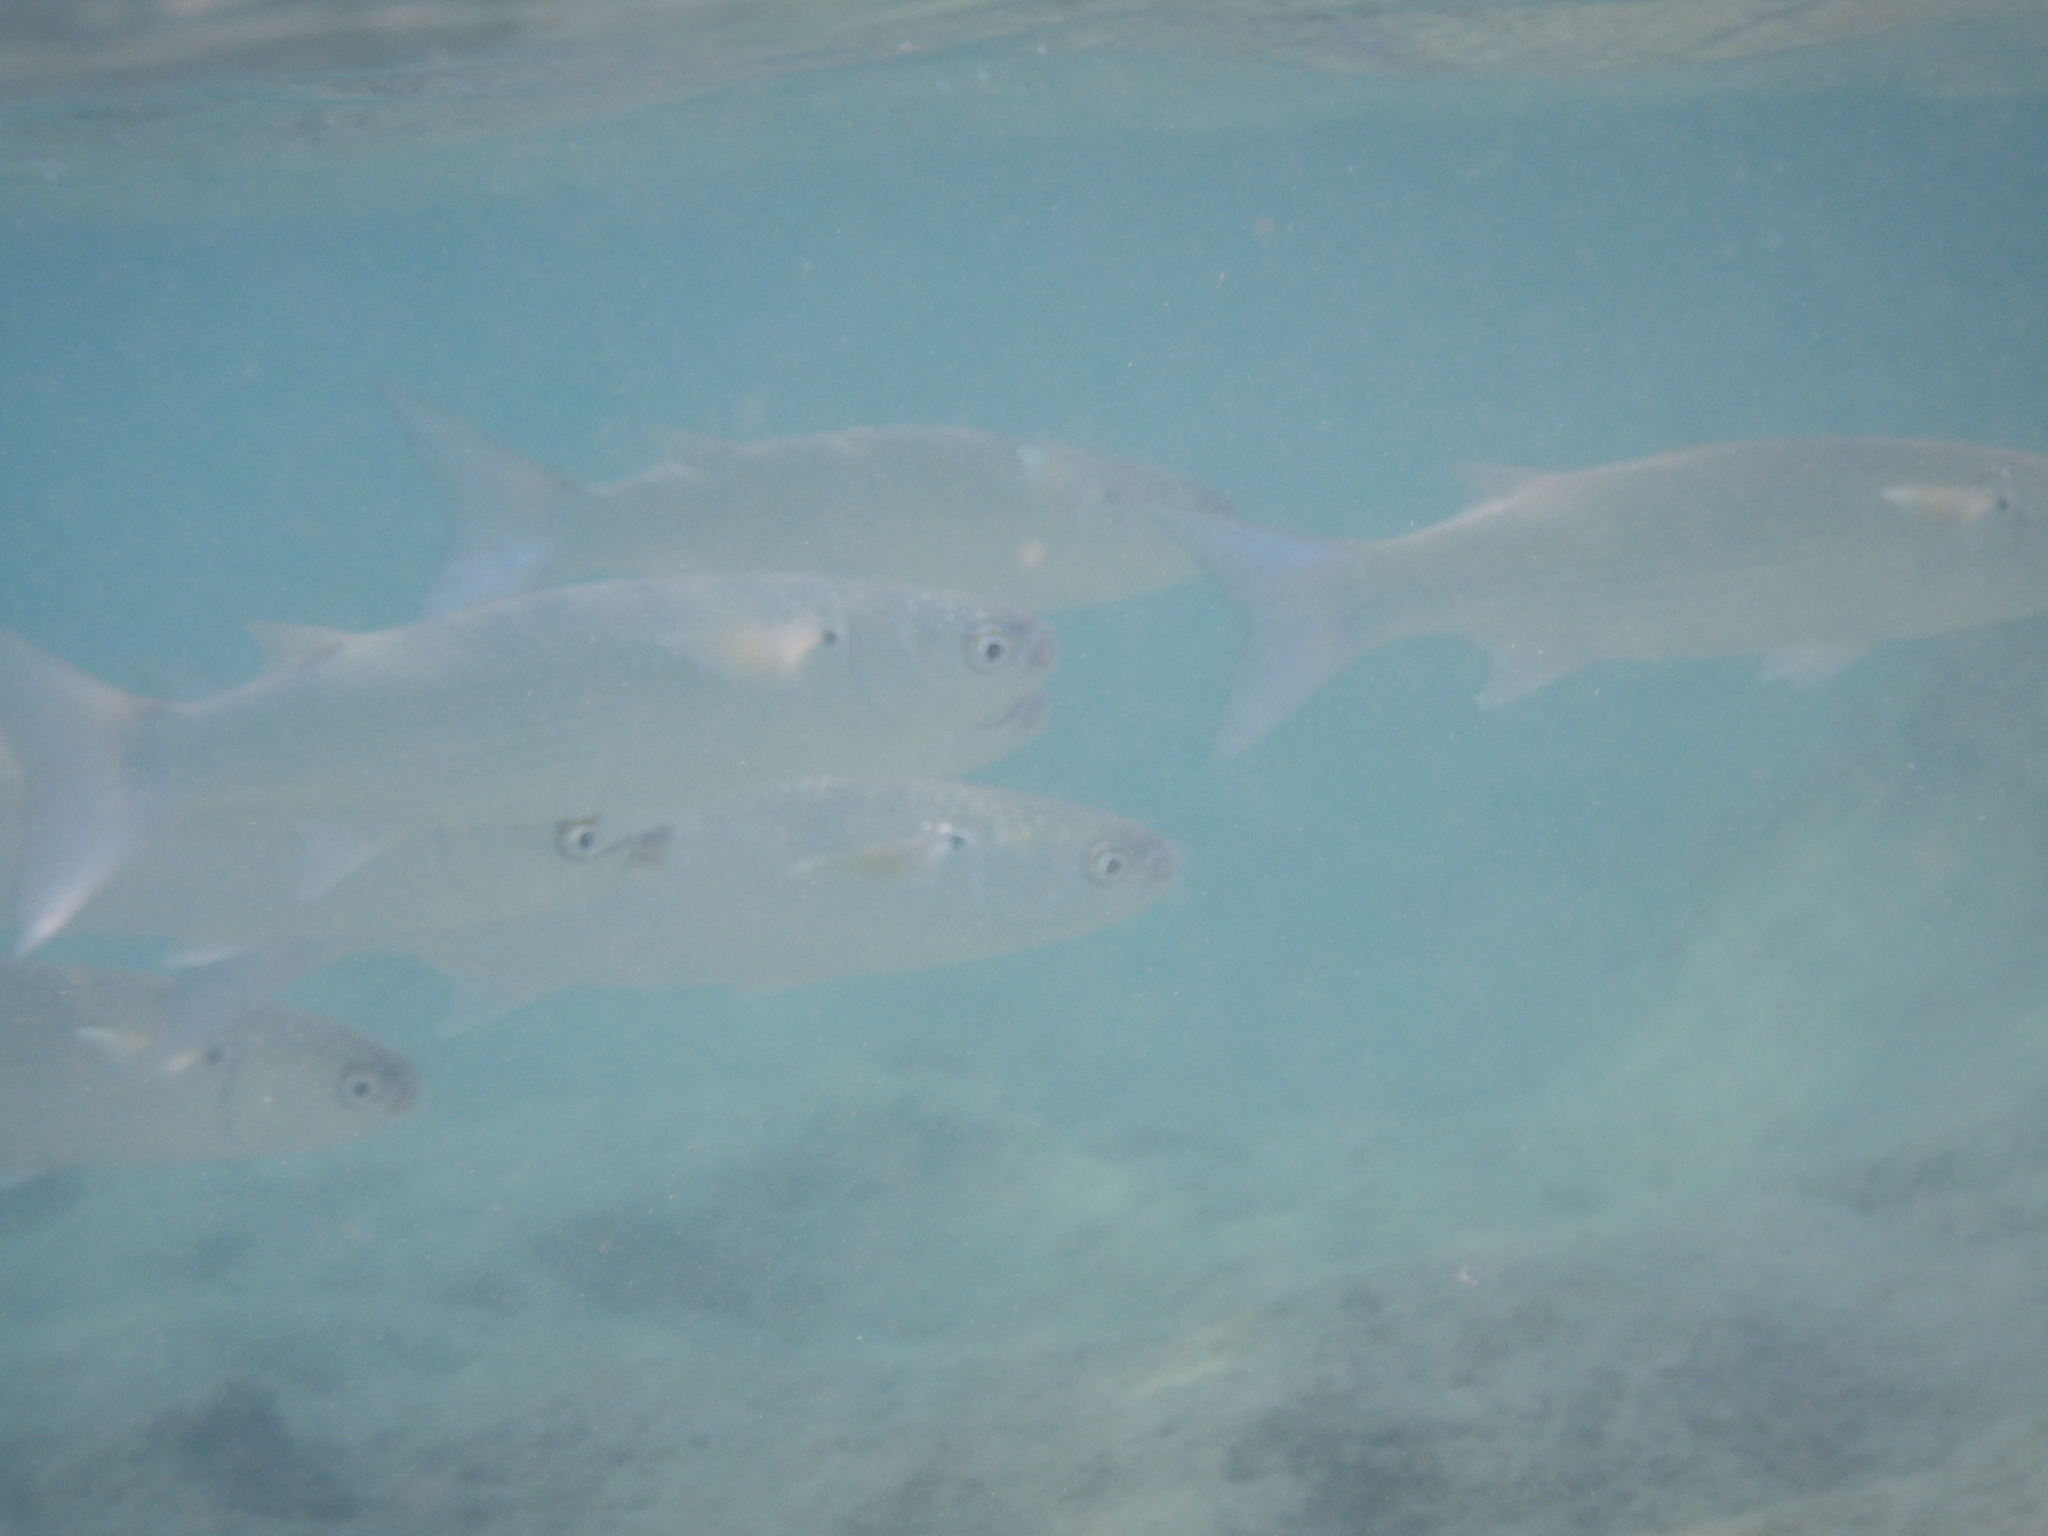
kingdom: Animalia
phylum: Chordata
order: Mugiliformes
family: Mugilidae
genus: Crenimugil
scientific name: Crenimugil crenilabis
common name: Fringelip mullet
